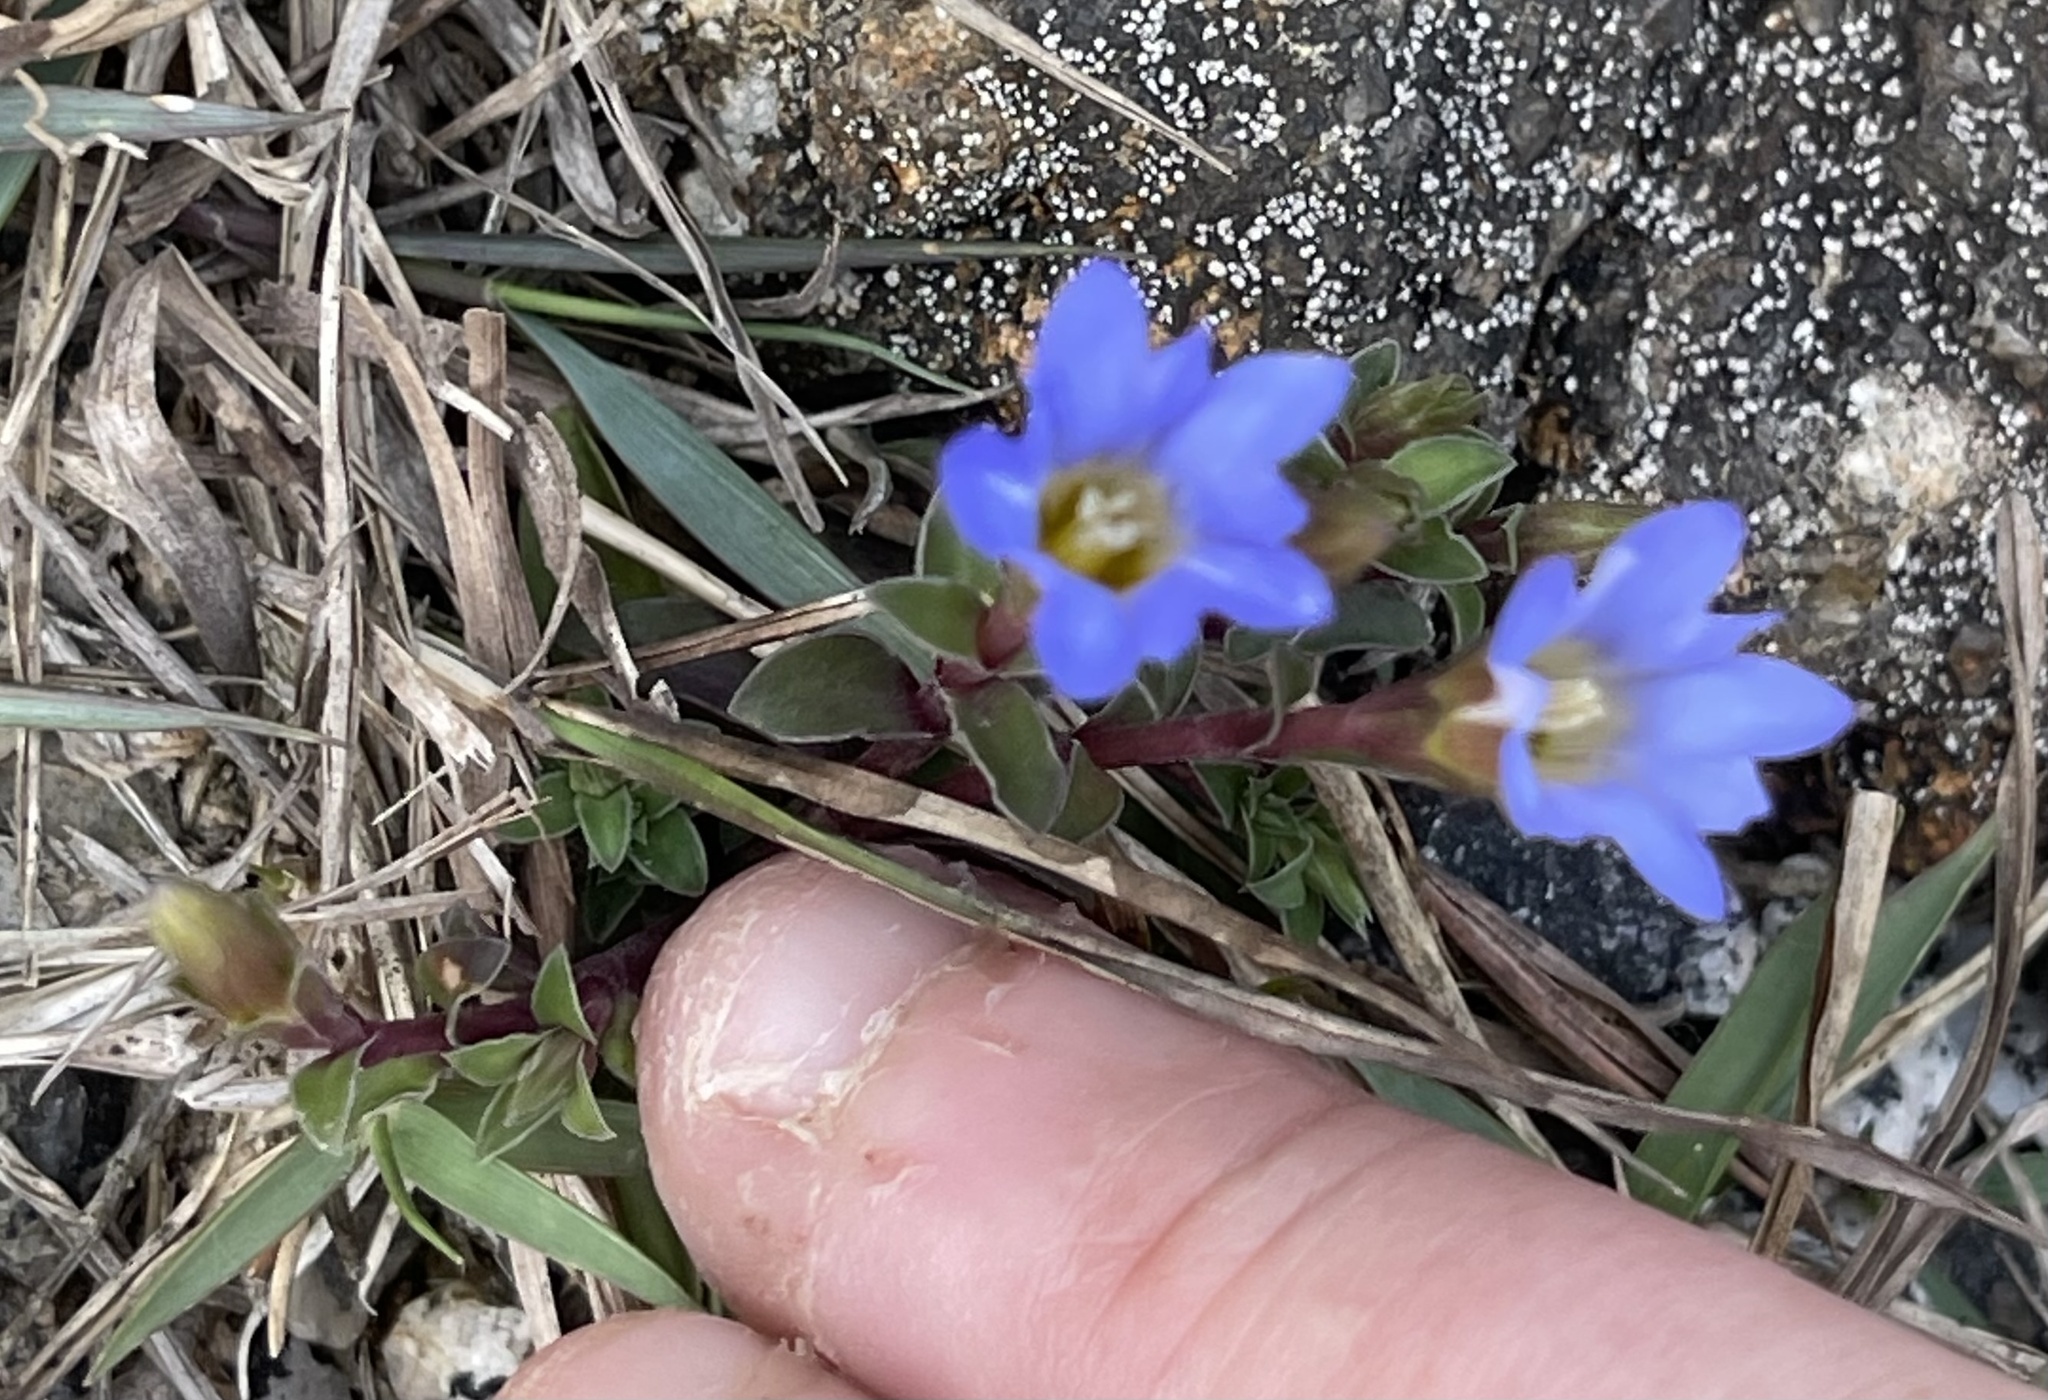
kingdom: Plantae
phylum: Tracheophyta
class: Magnoliopsida
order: Gentianales
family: Gentianaceae
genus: Gentiana
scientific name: Gentiana loureiroi
